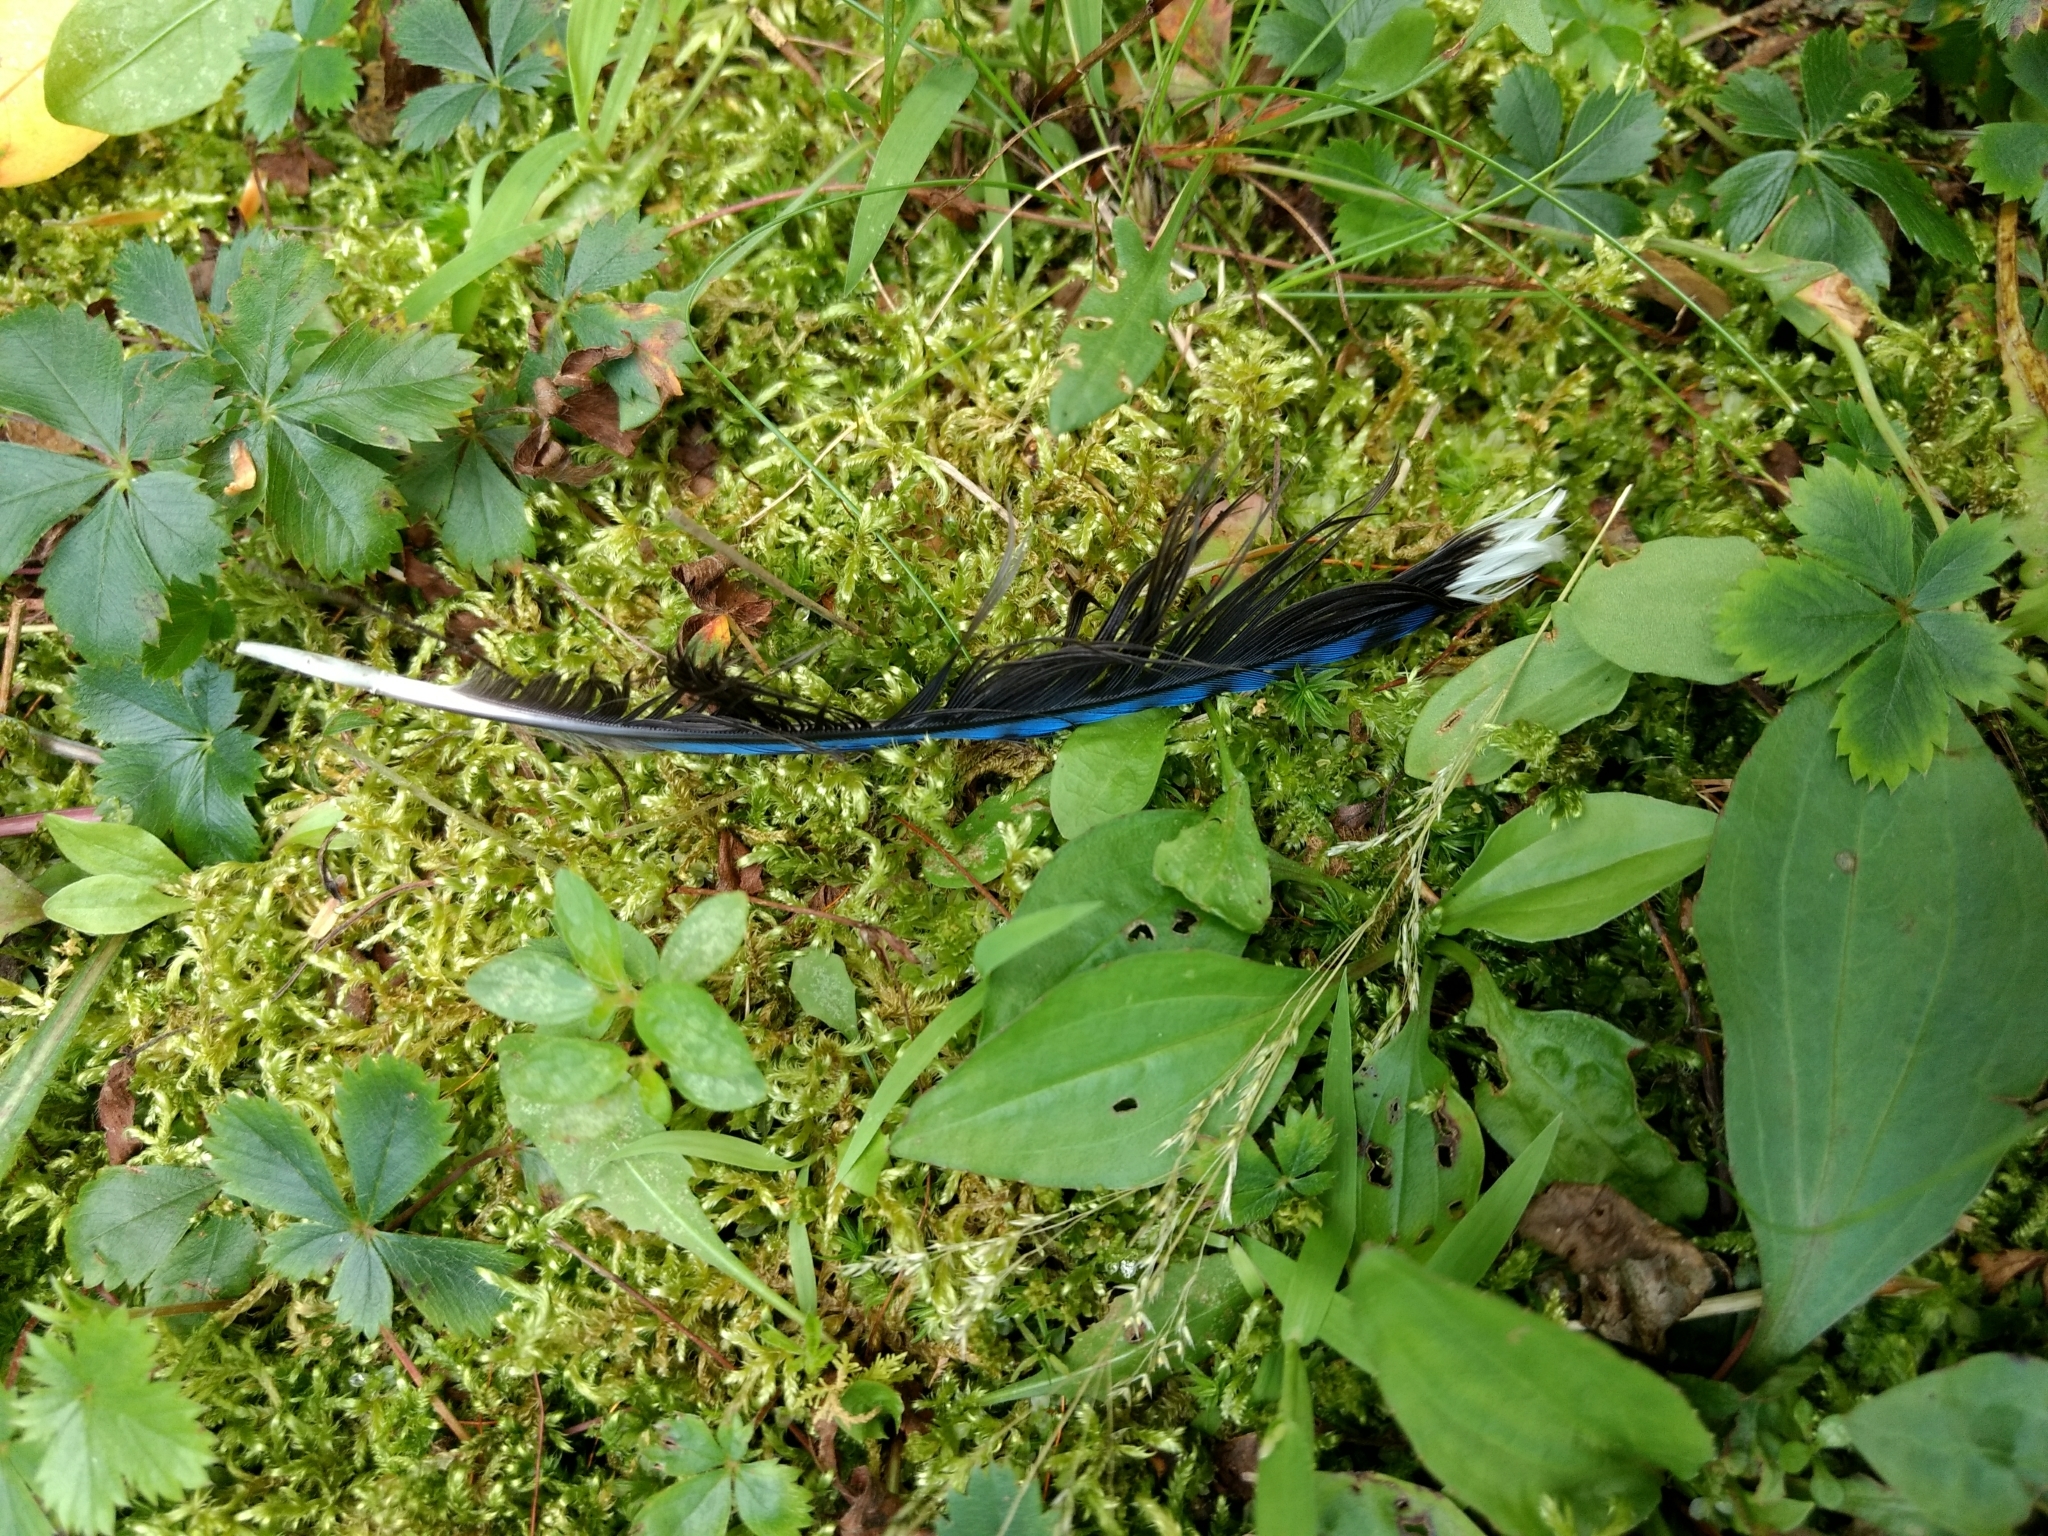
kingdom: Animalia
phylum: Chordata
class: Aves
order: Passeriformes
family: Corvidae
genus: Cyanocitta
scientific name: Cyanocitta cristata
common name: Blue jay
